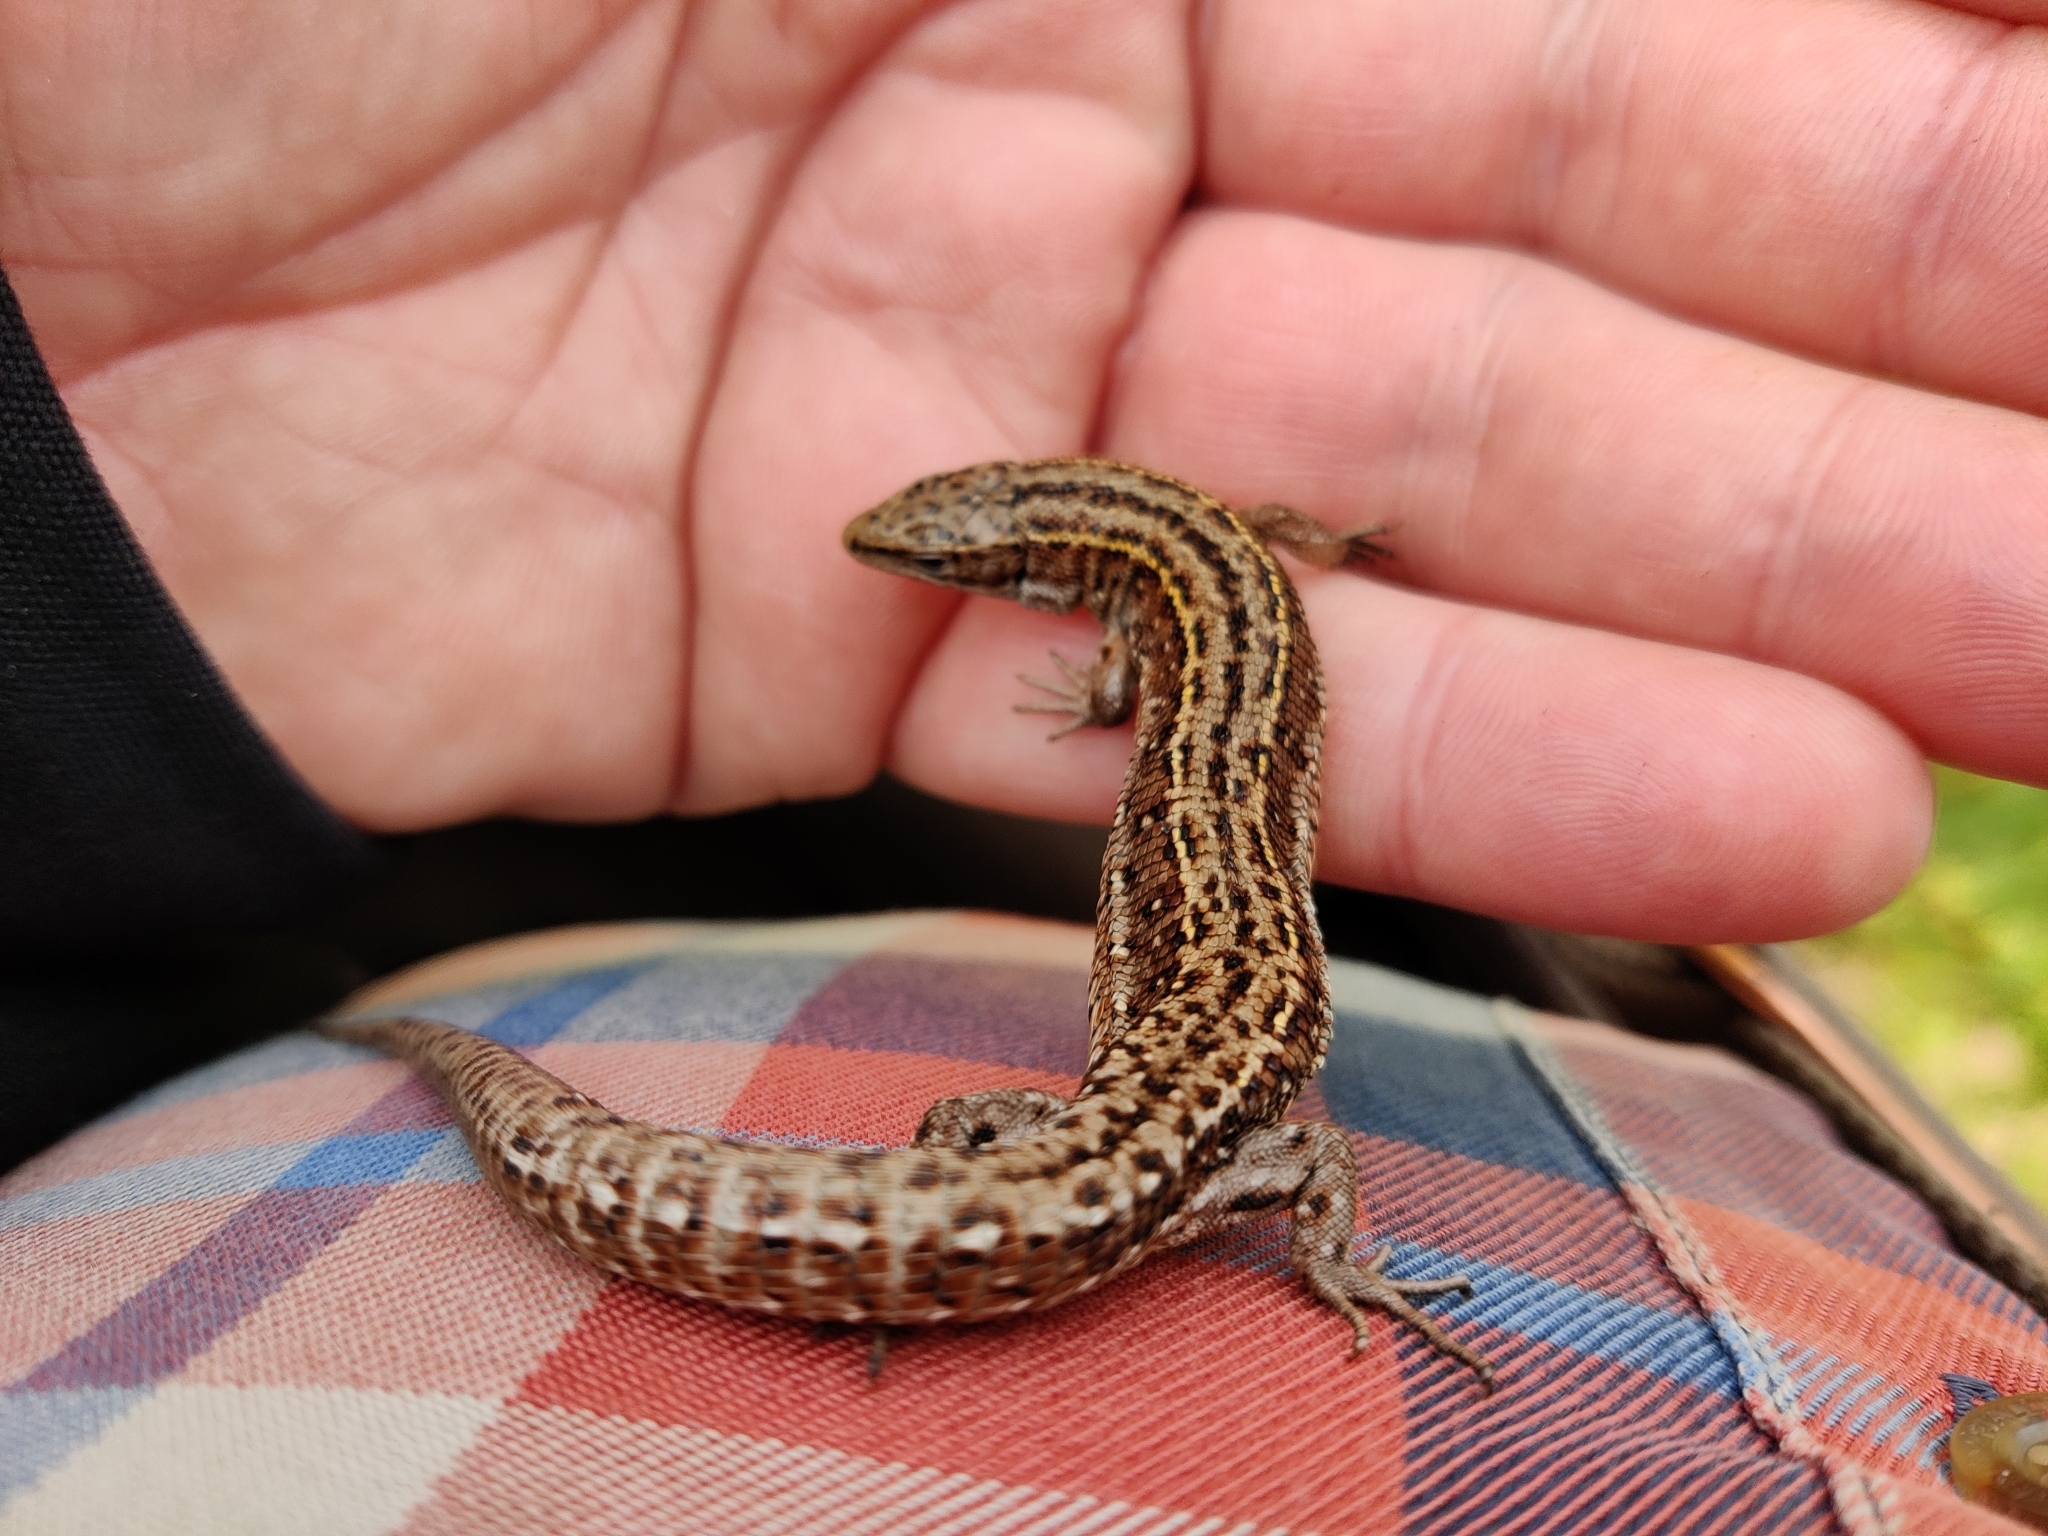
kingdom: Animalia
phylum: Chordata
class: Squamata
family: Lacertidae
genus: Zootoca
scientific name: Zootoca vivipara
